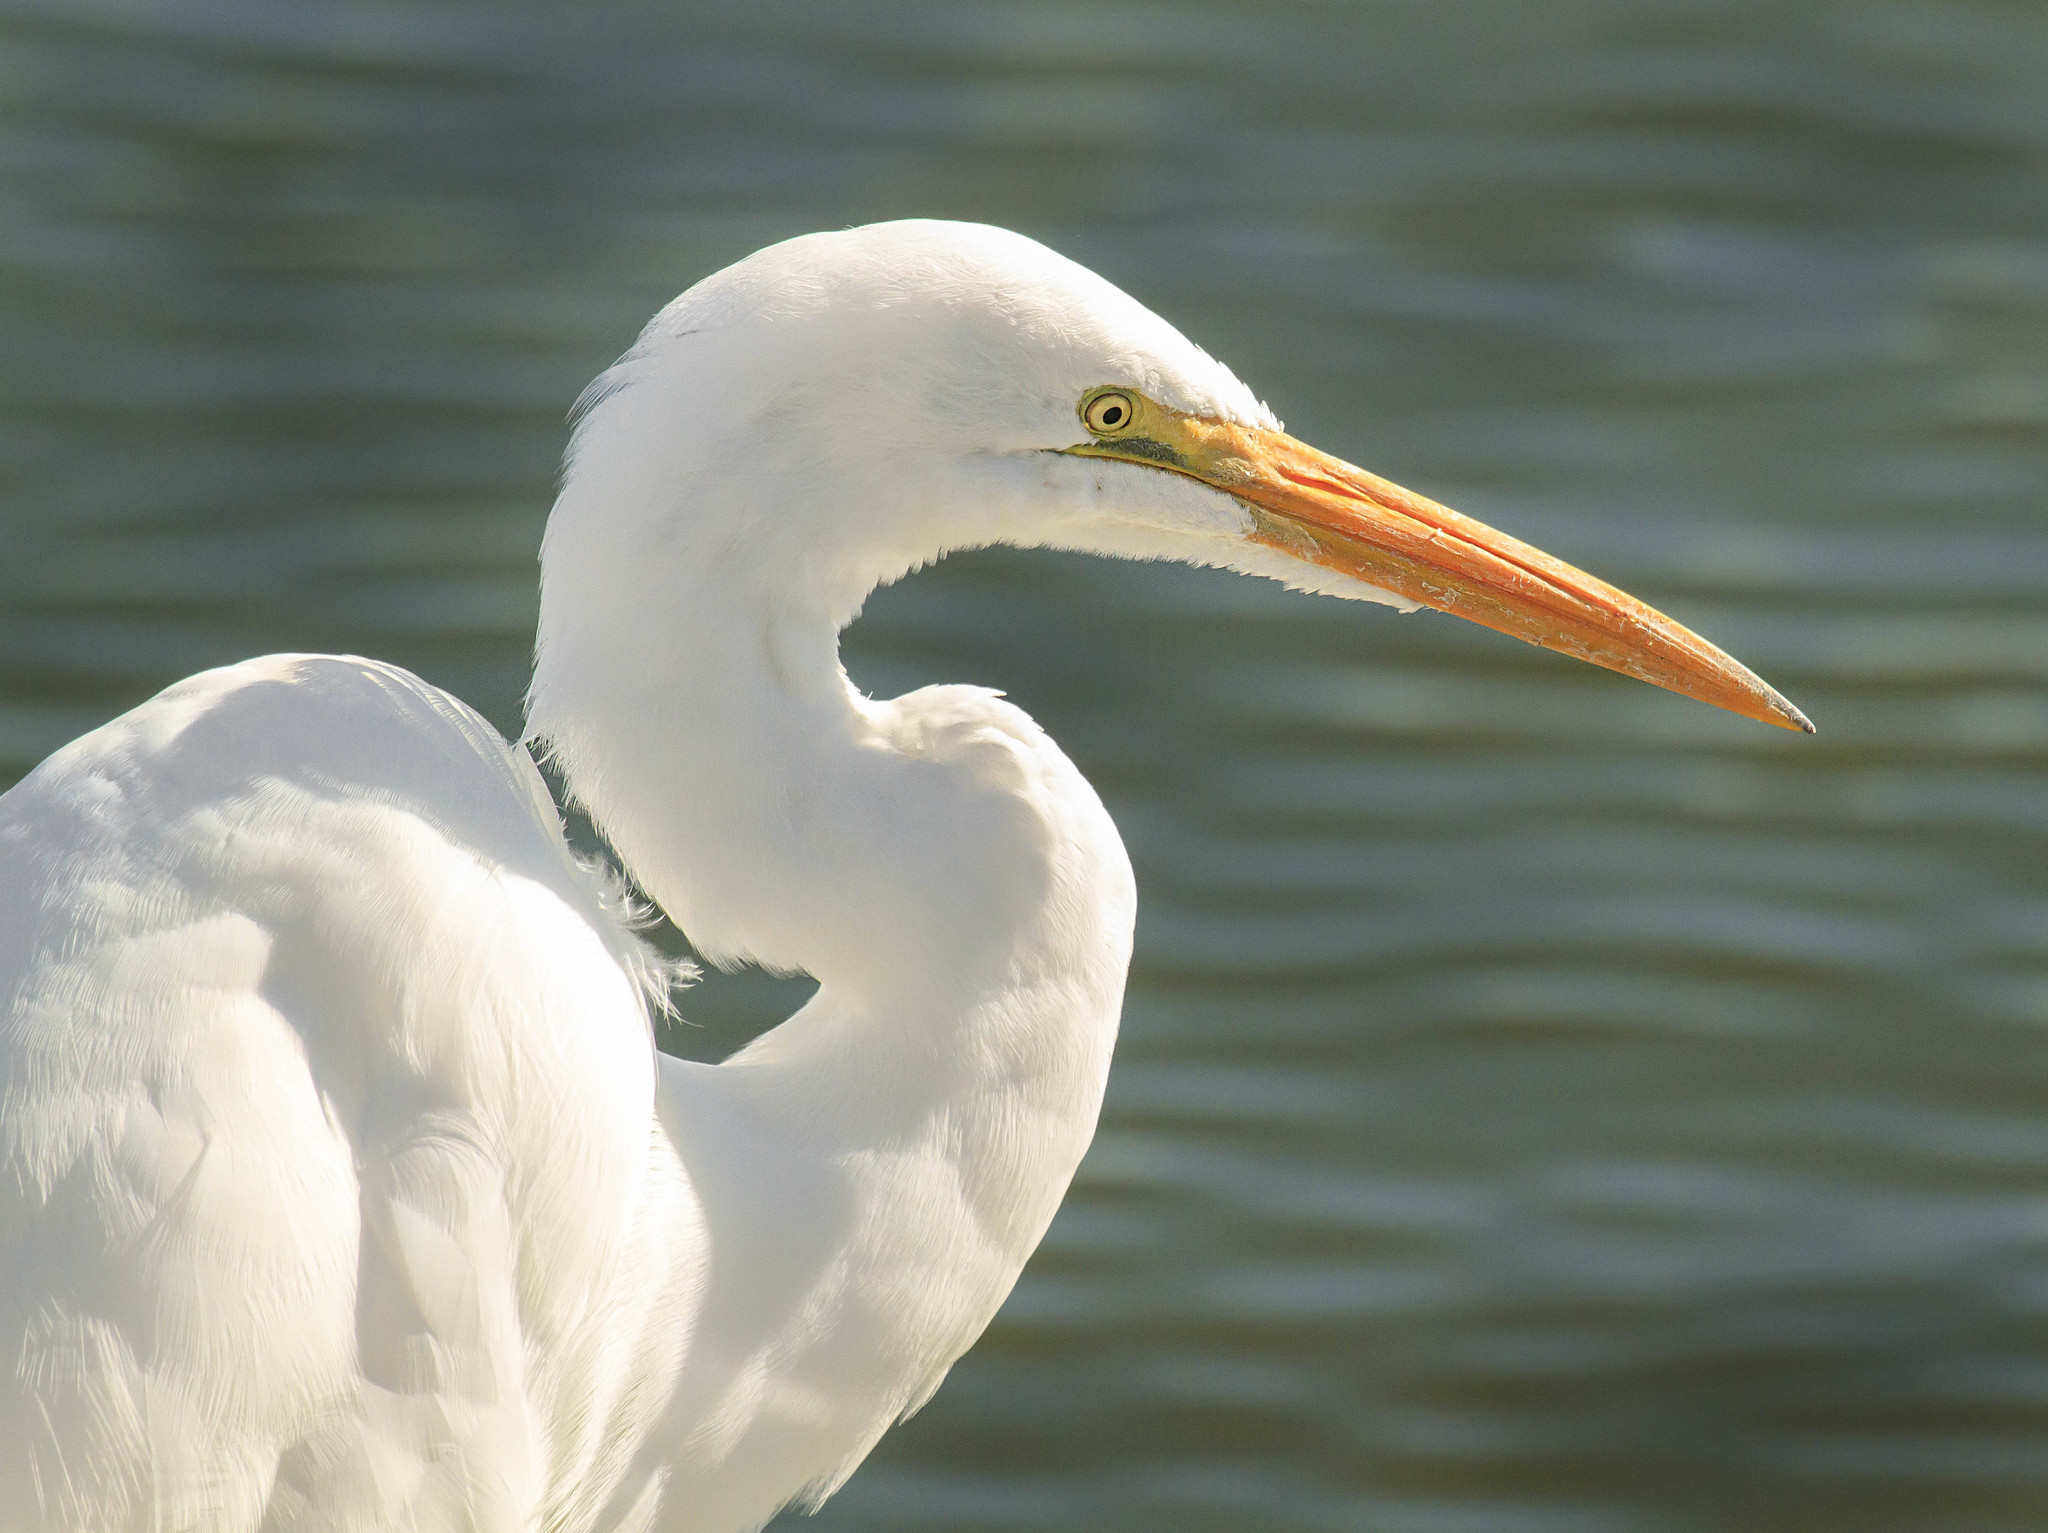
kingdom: Animalia
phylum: Chordata
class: Aves
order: Pelecaniformes
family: Ardeidae
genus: Ardea
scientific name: Ardea alba
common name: Great egret
